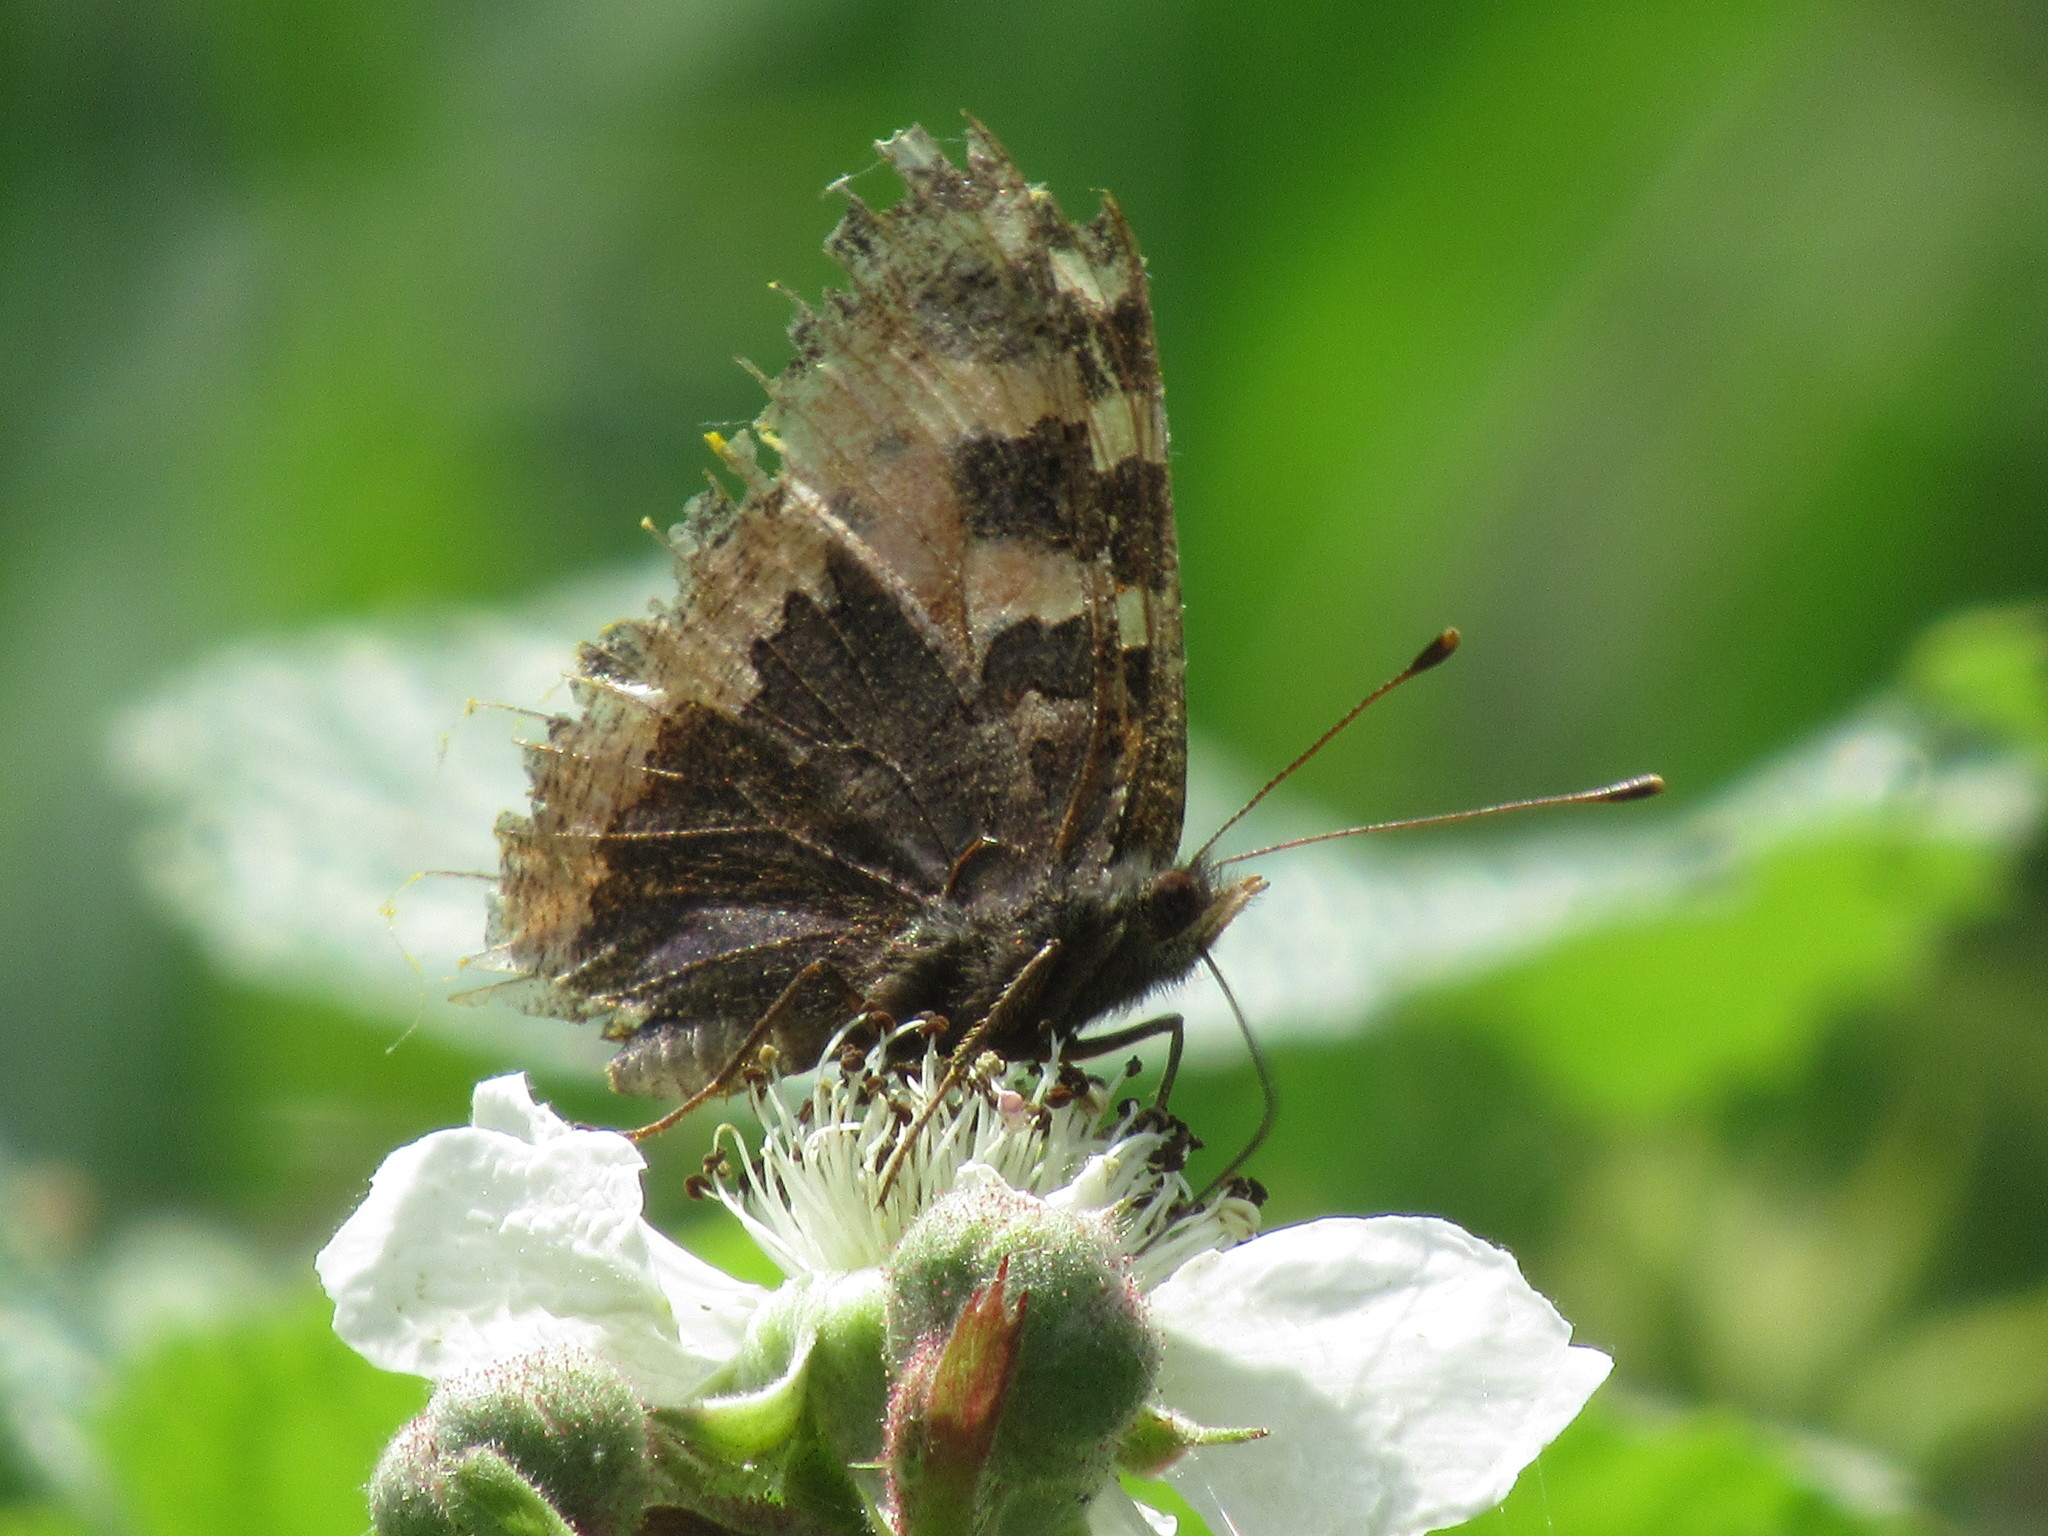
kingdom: Animalia
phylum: Arthropoda
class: Insecta
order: Lepidoptera
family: Nymphalidae
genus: Aglais
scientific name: Aglais urticae
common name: Small tortoiseshell
